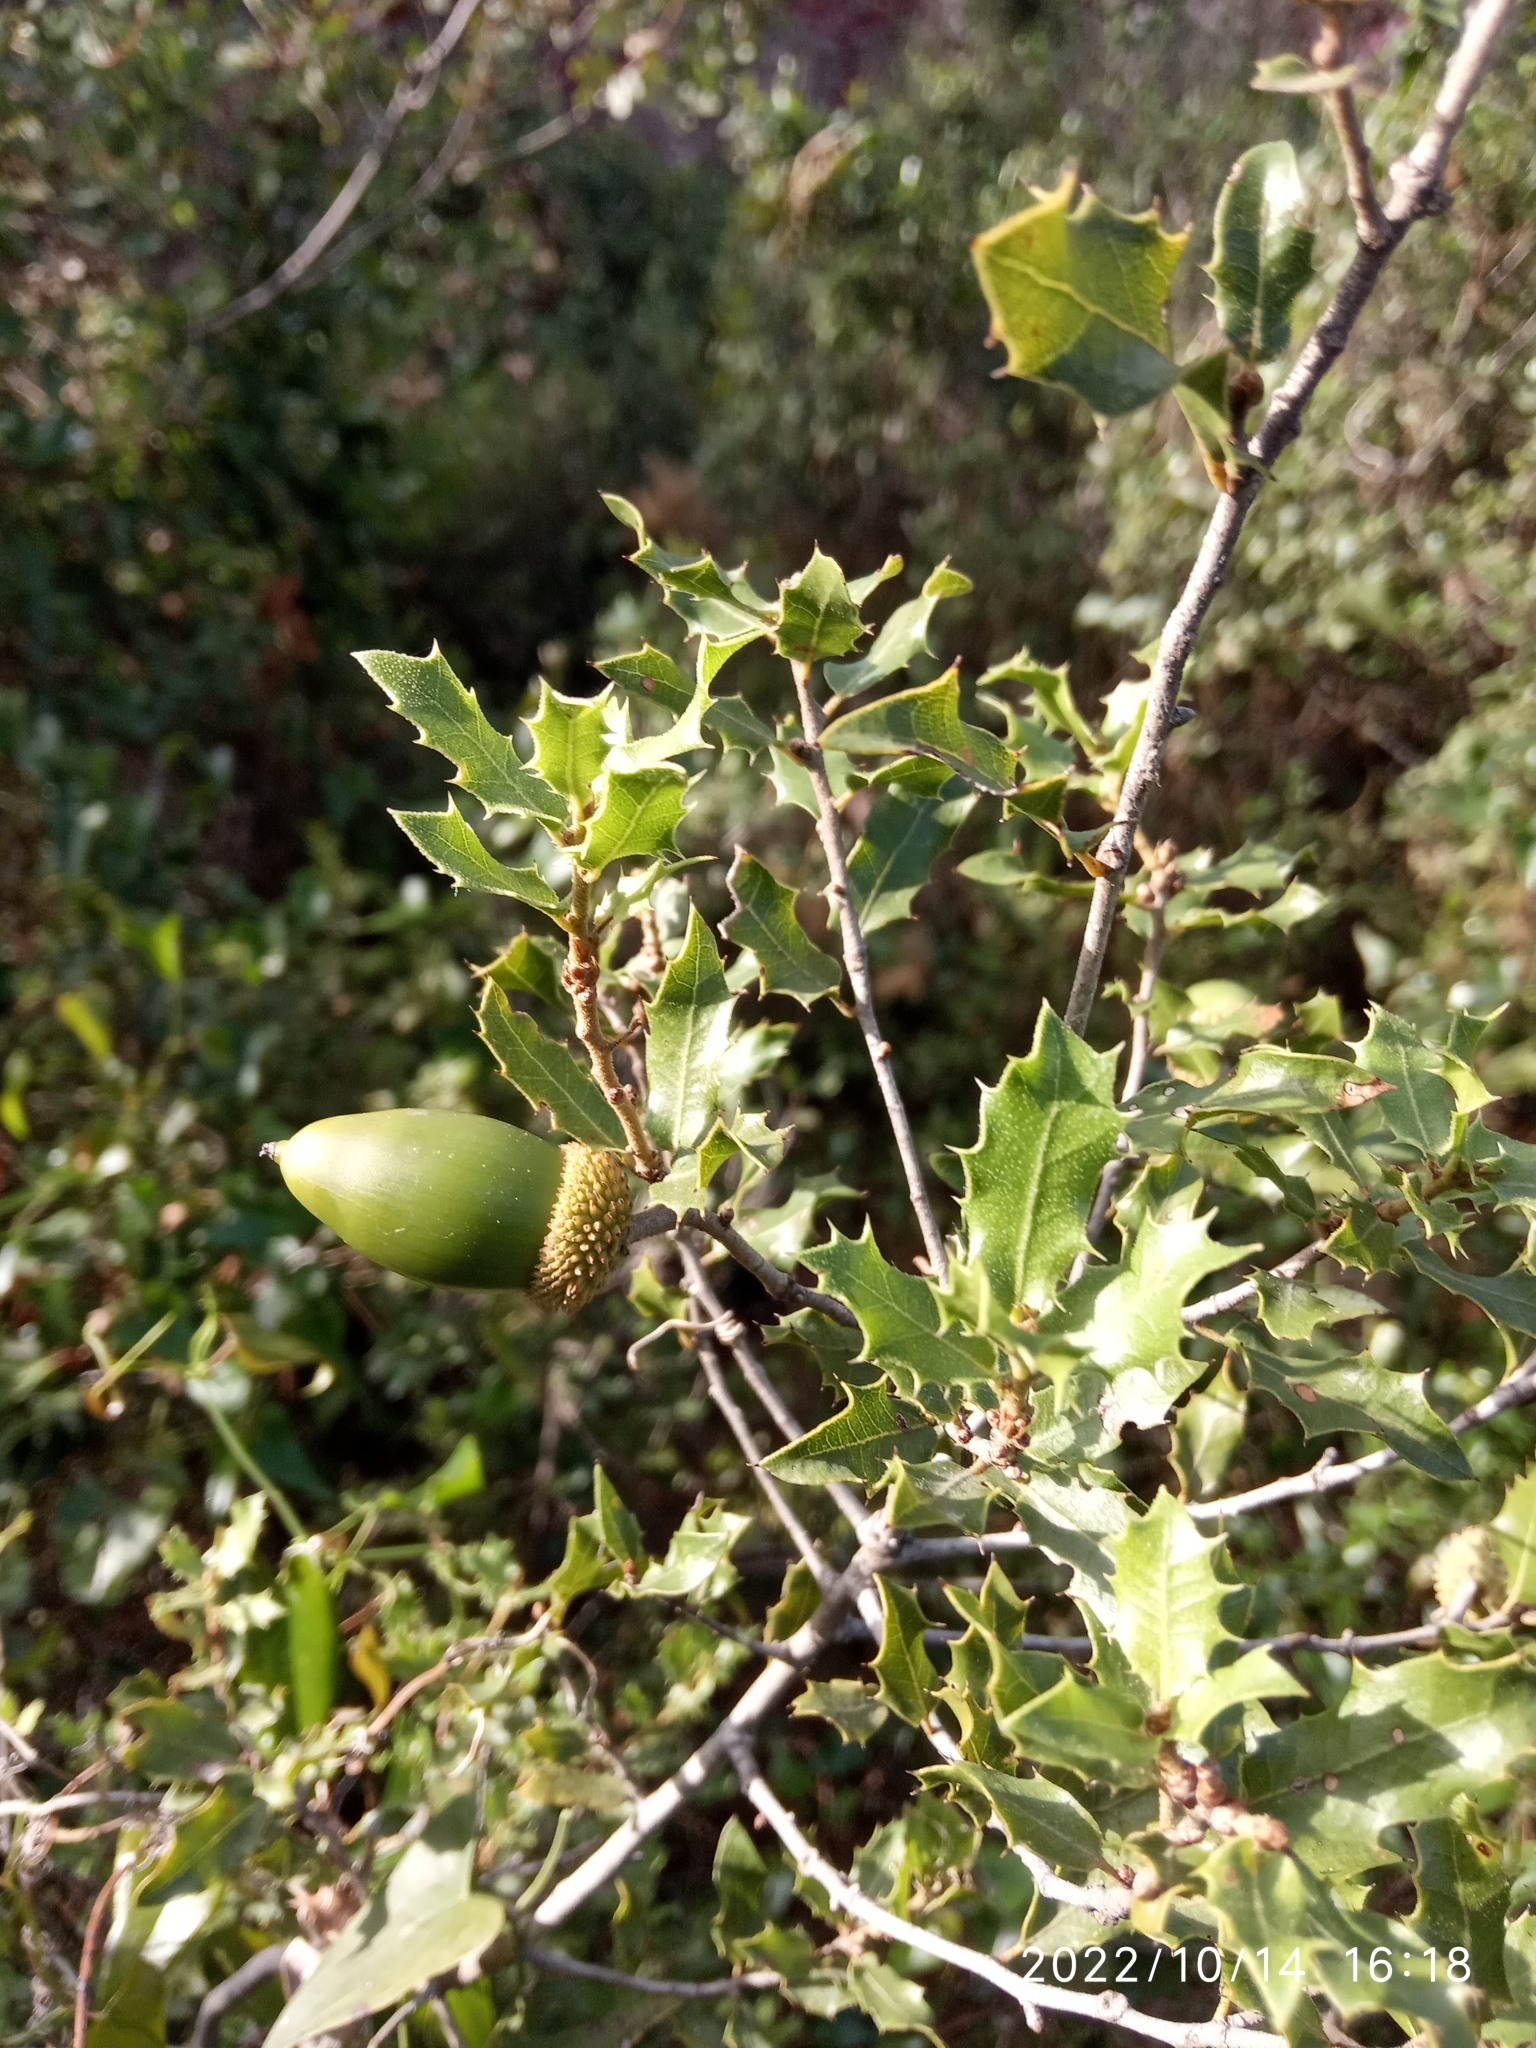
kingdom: Plantae
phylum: Tracheophyta
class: Magnoliopsida
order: Fagales
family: Fagaceae
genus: Quercus
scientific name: Quercus coccifera
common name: Kermes oak
